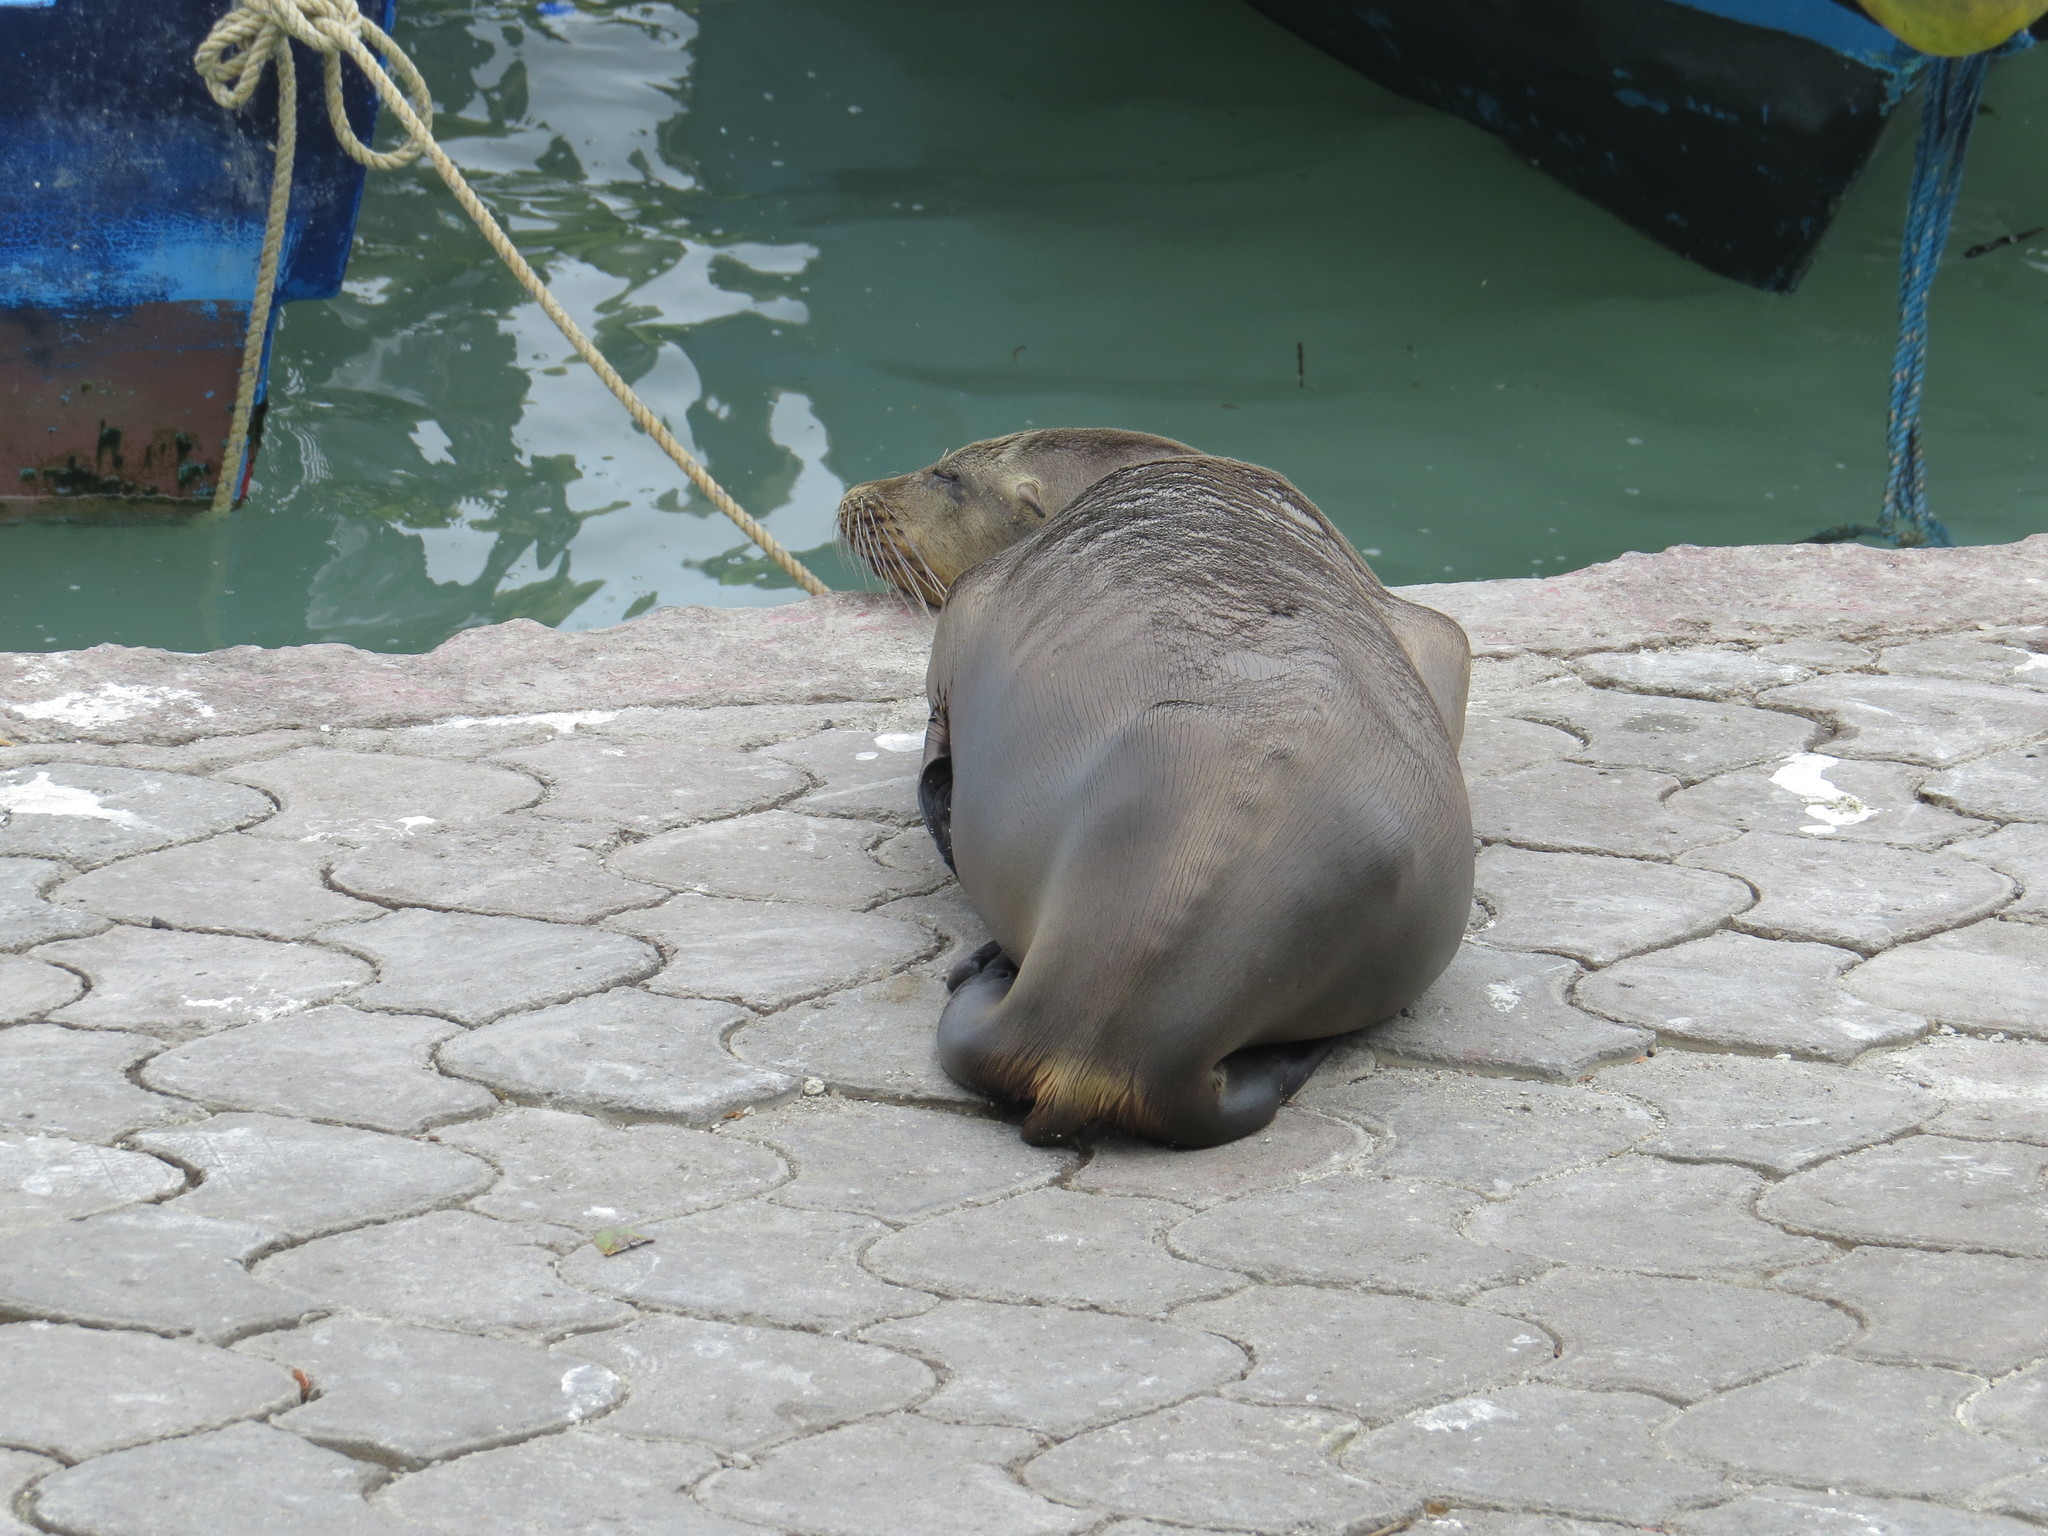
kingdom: Animalia
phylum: Chordata
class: Mammalia
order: Carnivora
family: Otariidae
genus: Zalophus
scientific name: Zalophus wollebaeki
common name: Galapagos sea lion
